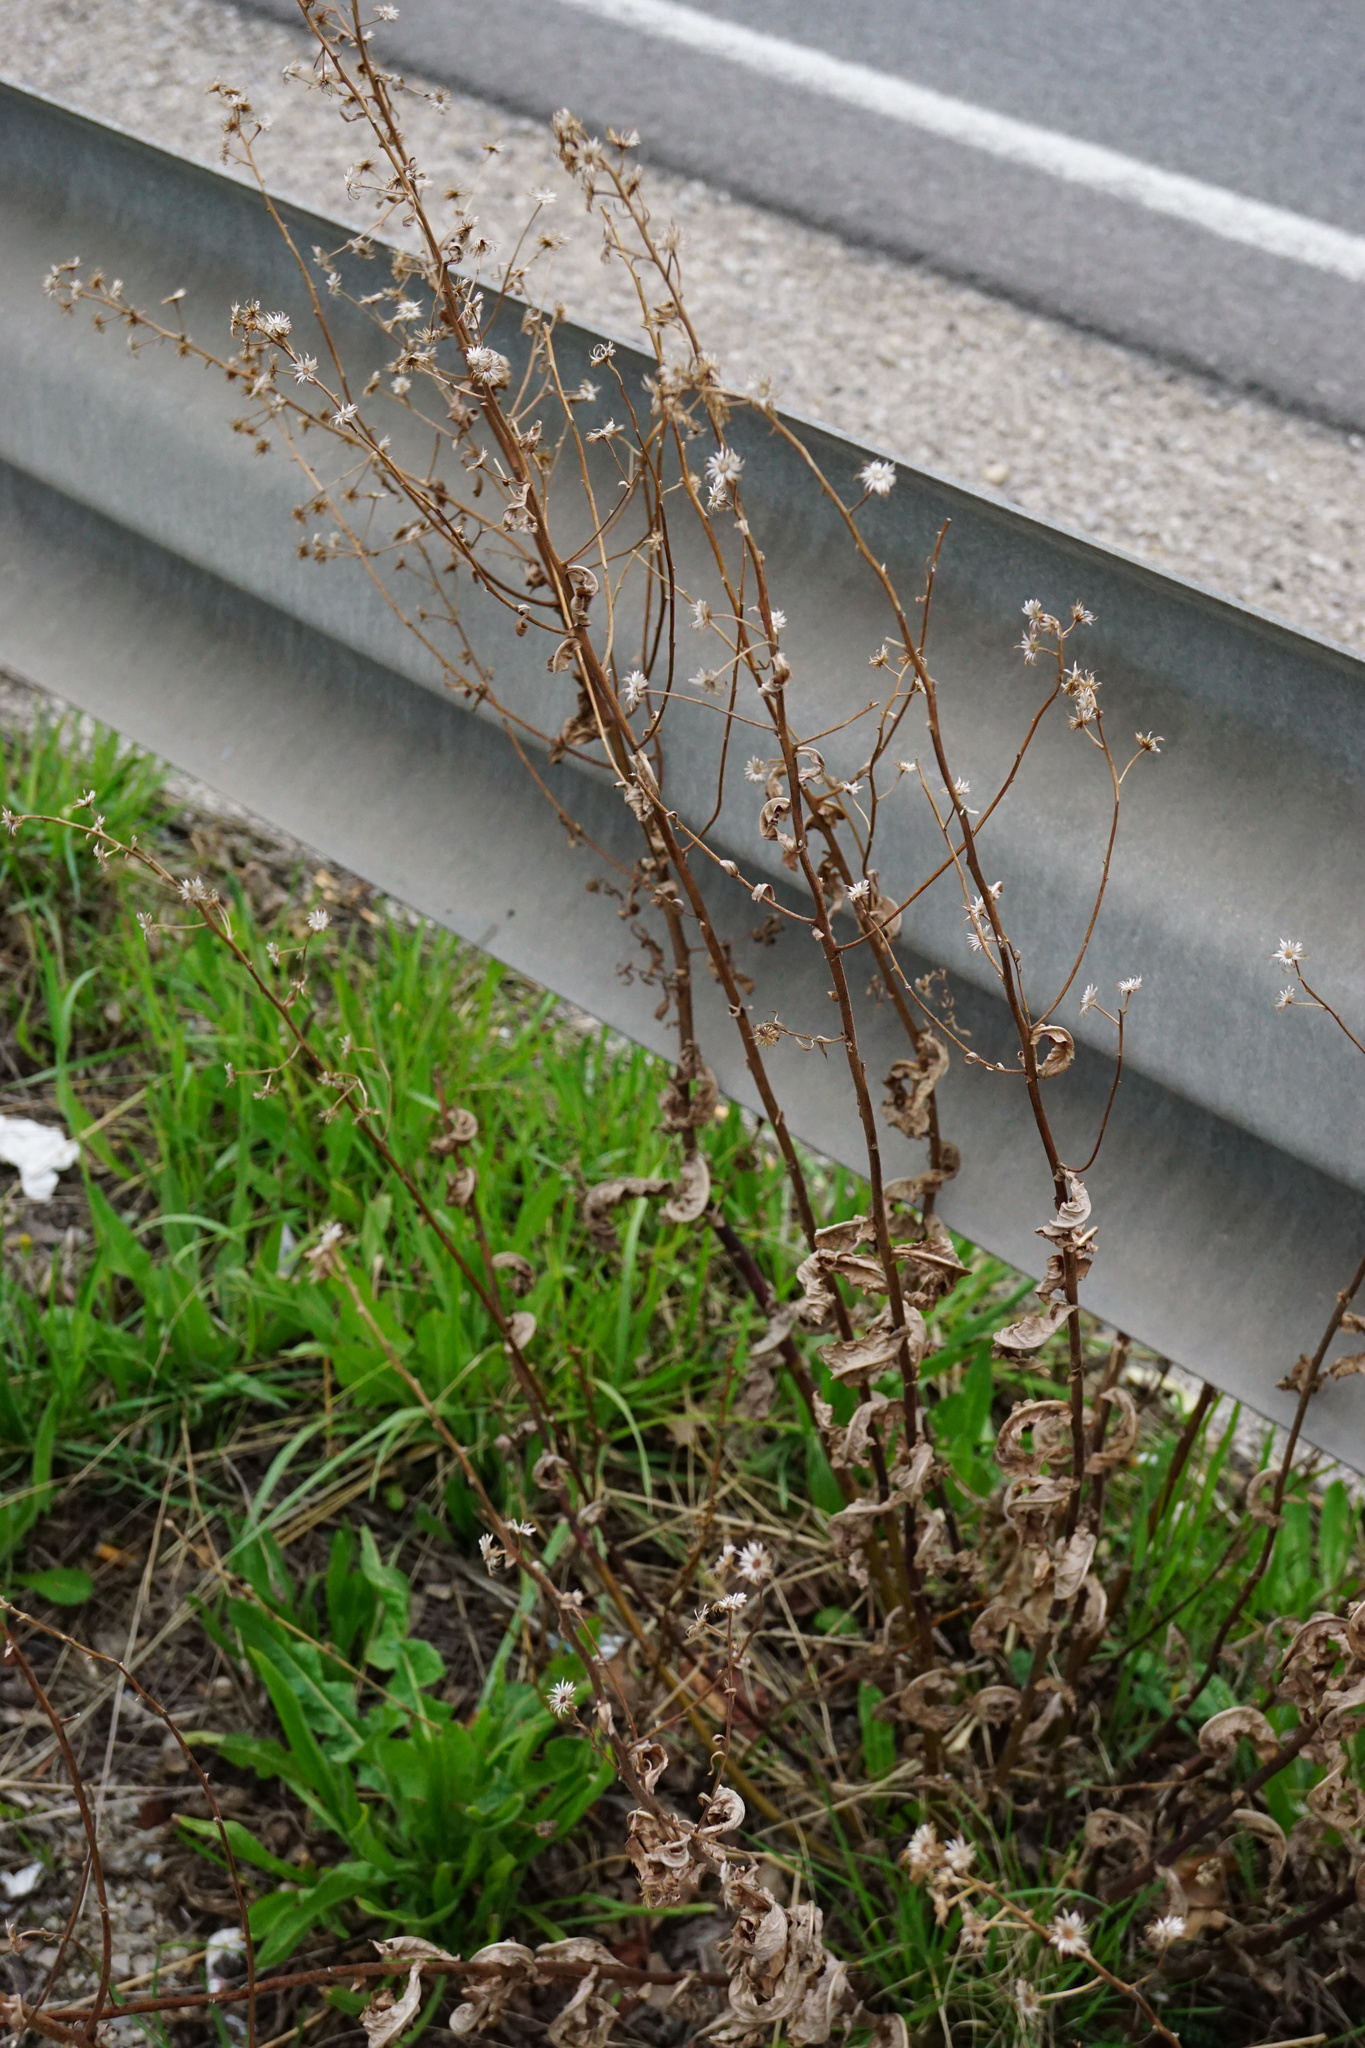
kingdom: Plantae
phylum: Tracheophyta
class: Magnoliopsida
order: Asterales
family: Asteraceae
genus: Dittrichia
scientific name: Dittrichia viscosa
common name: Woody fleabane
